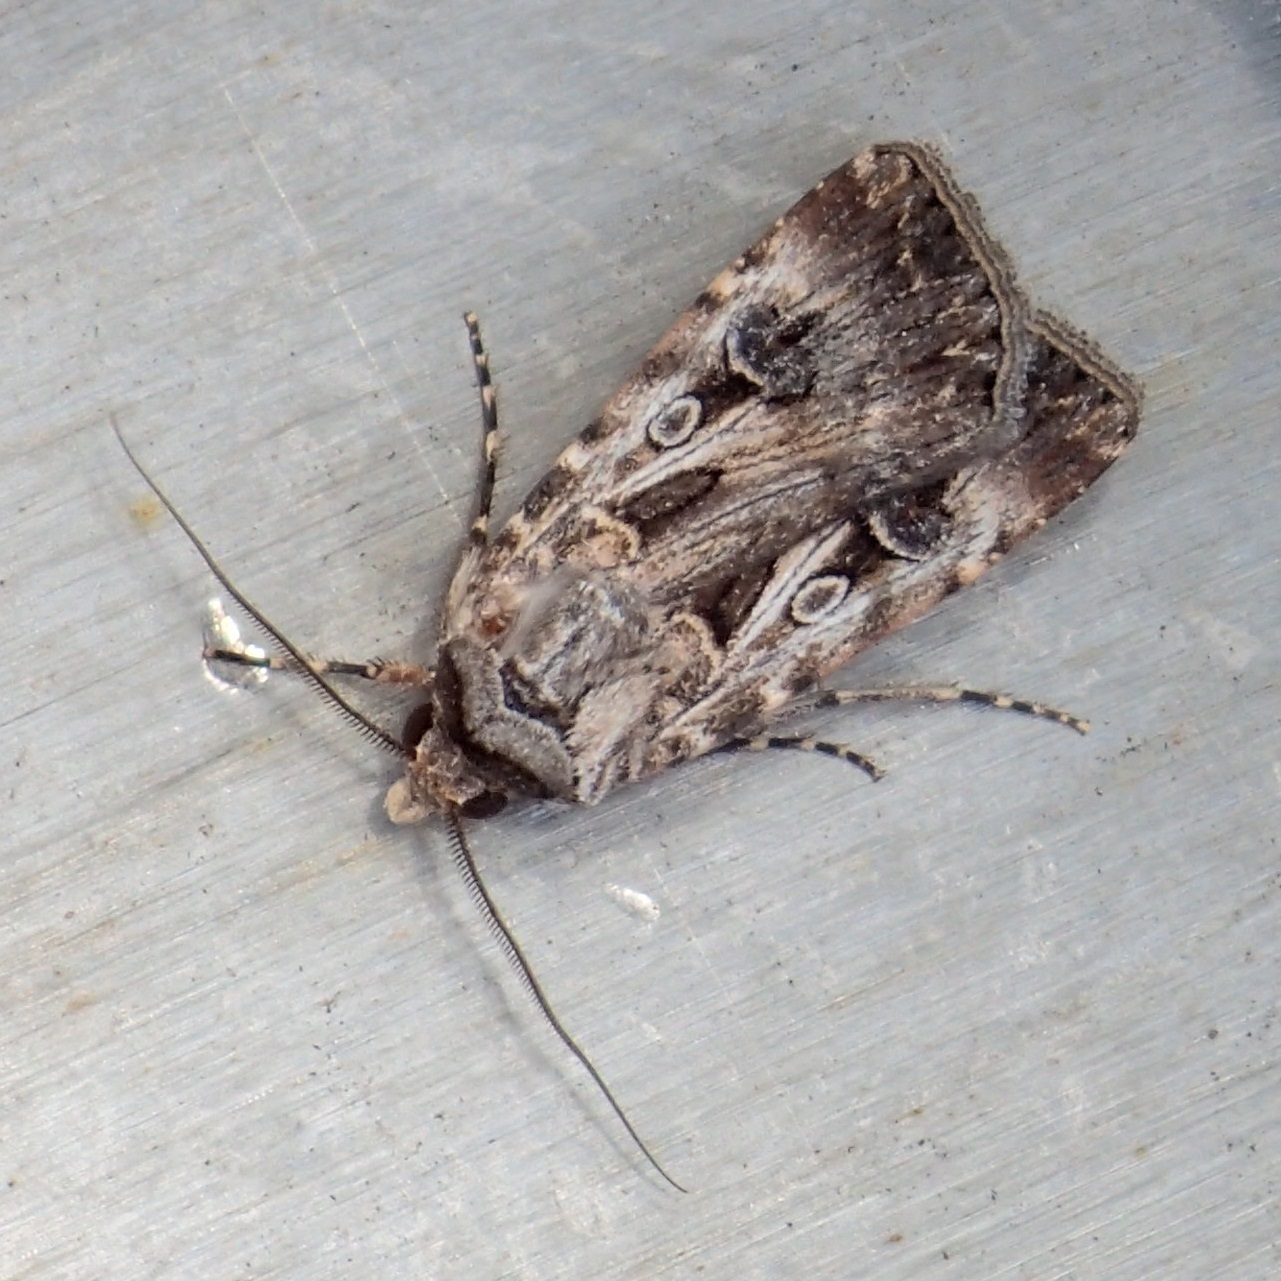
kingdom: Animalia
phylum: Arthropoda
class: Insecta
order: Lepidoptera
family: Noctuidae
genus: Agrotis
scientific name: Agrotis munda
